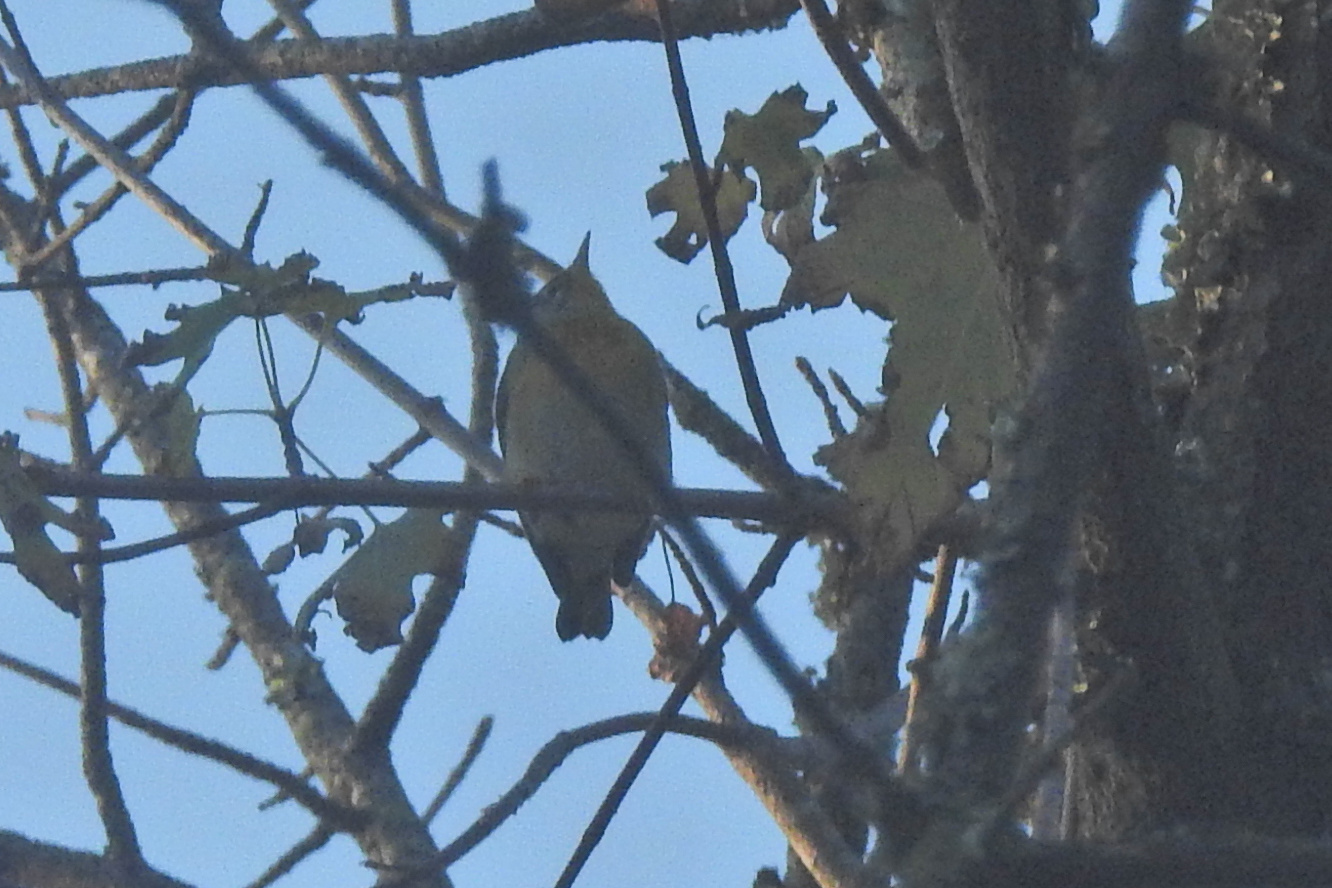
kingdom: Animalia
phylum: Chordata
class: Aves
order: Passeriformes
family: Parulidae
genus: Setophaga
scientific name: Setophaga americana
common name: Northern parula
